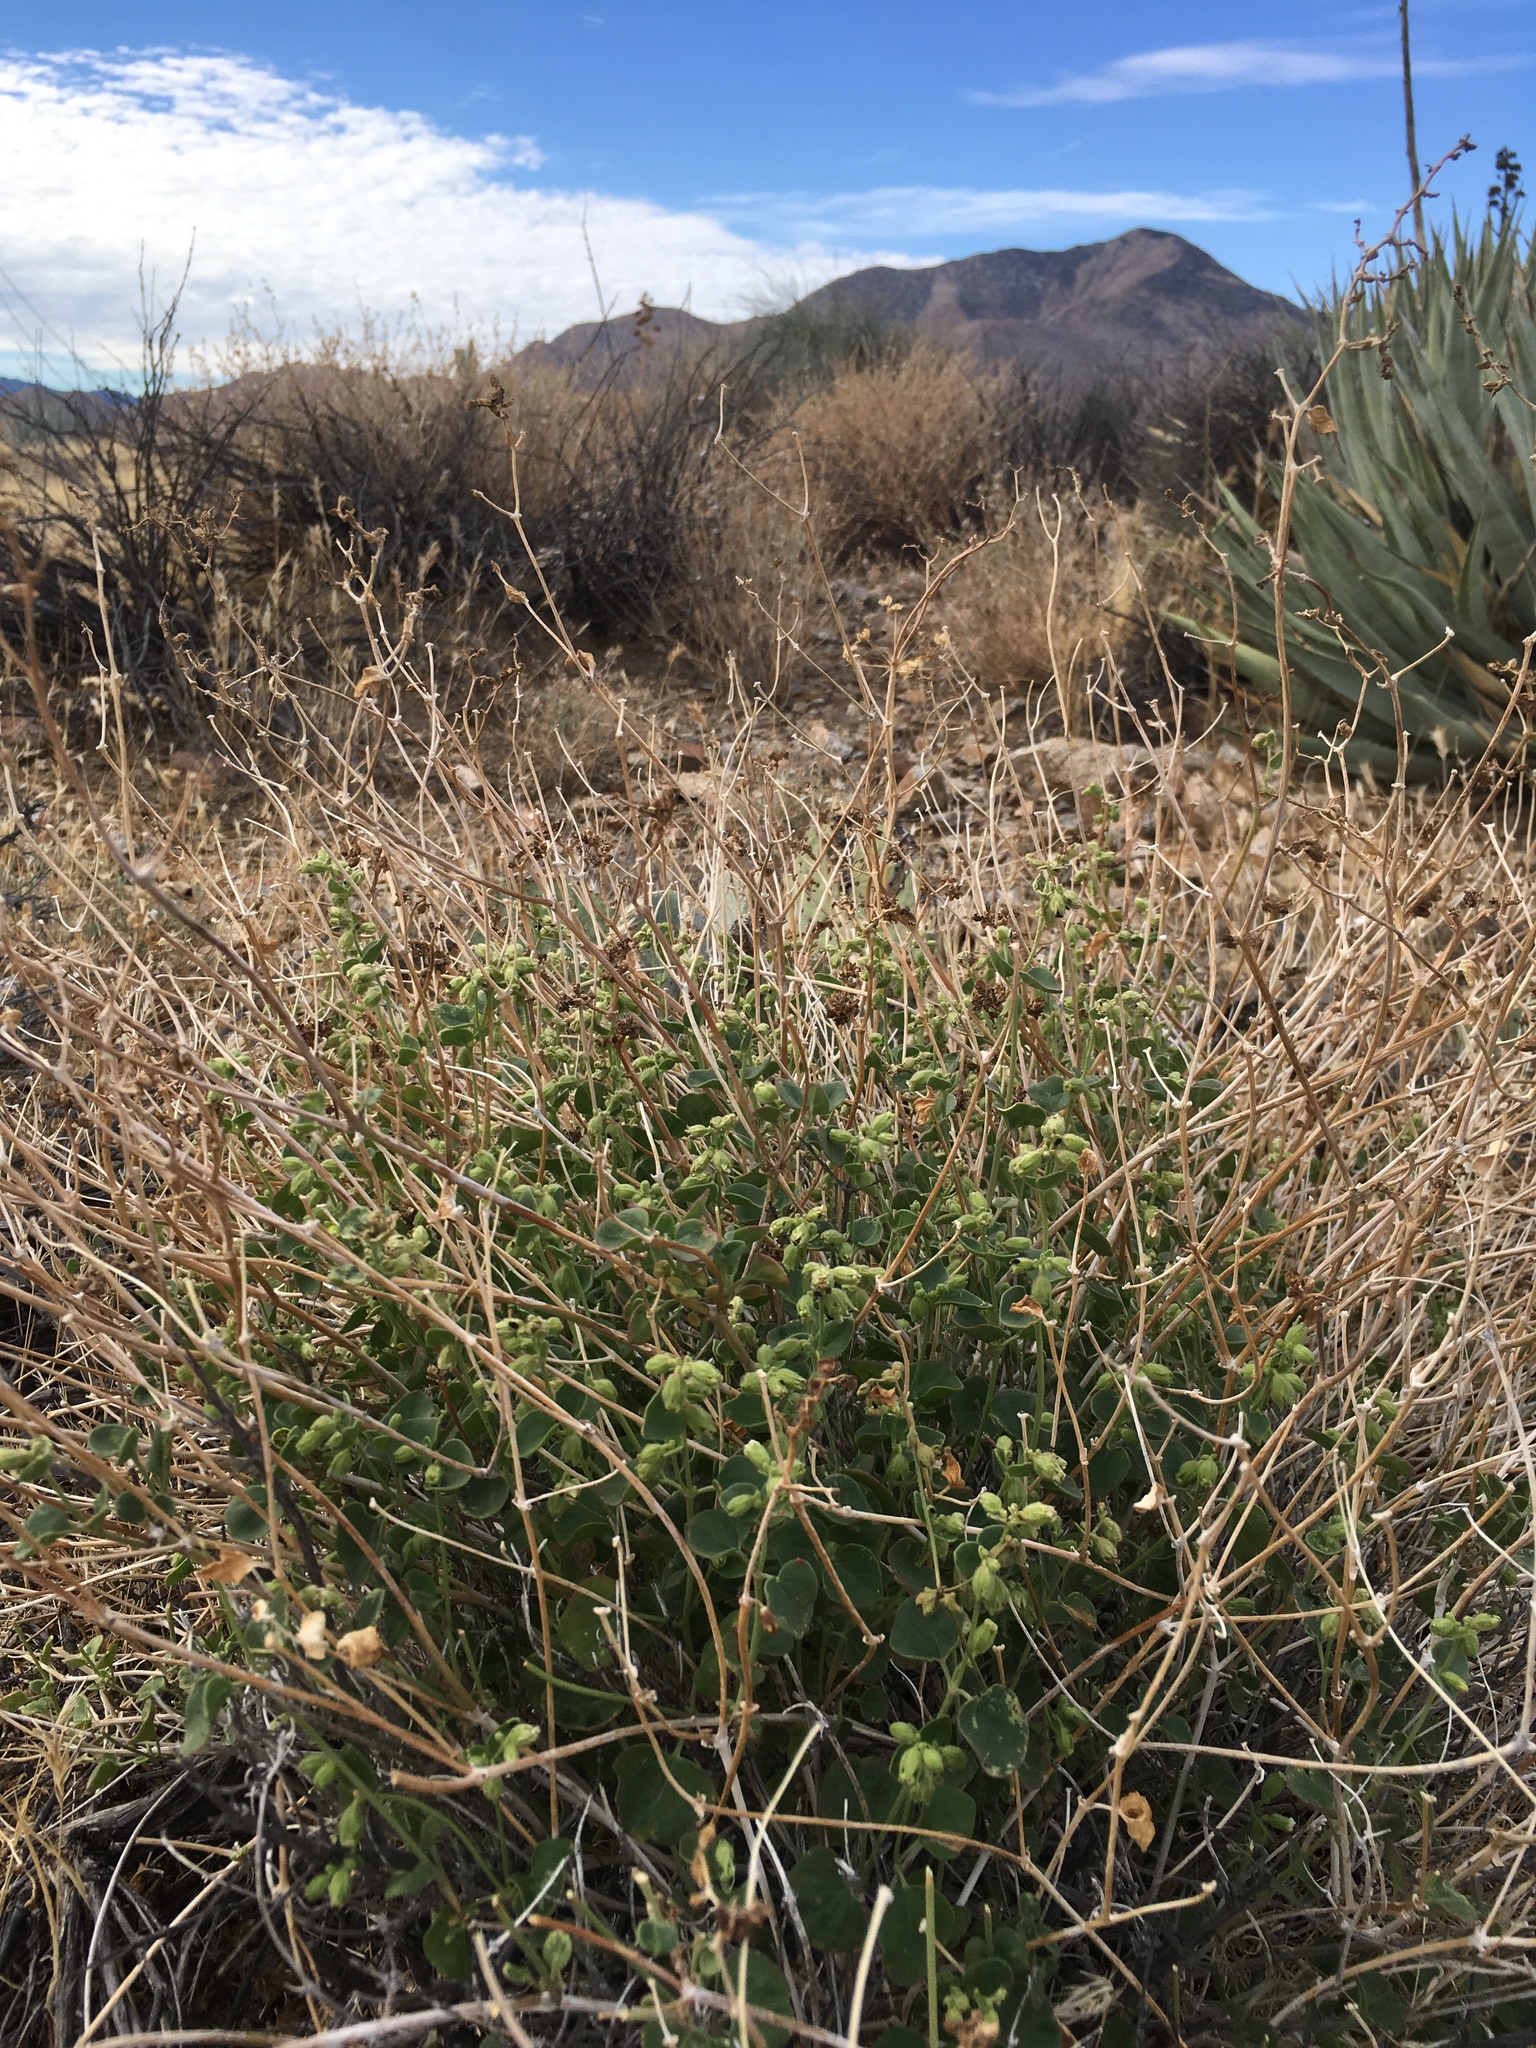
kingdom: Plantae
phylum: Tracheophyta
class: Magnoliopsida
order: Caryophyllales
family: Nyctaginaceae
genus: Mirabilis
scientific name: Mirabilis laevis
